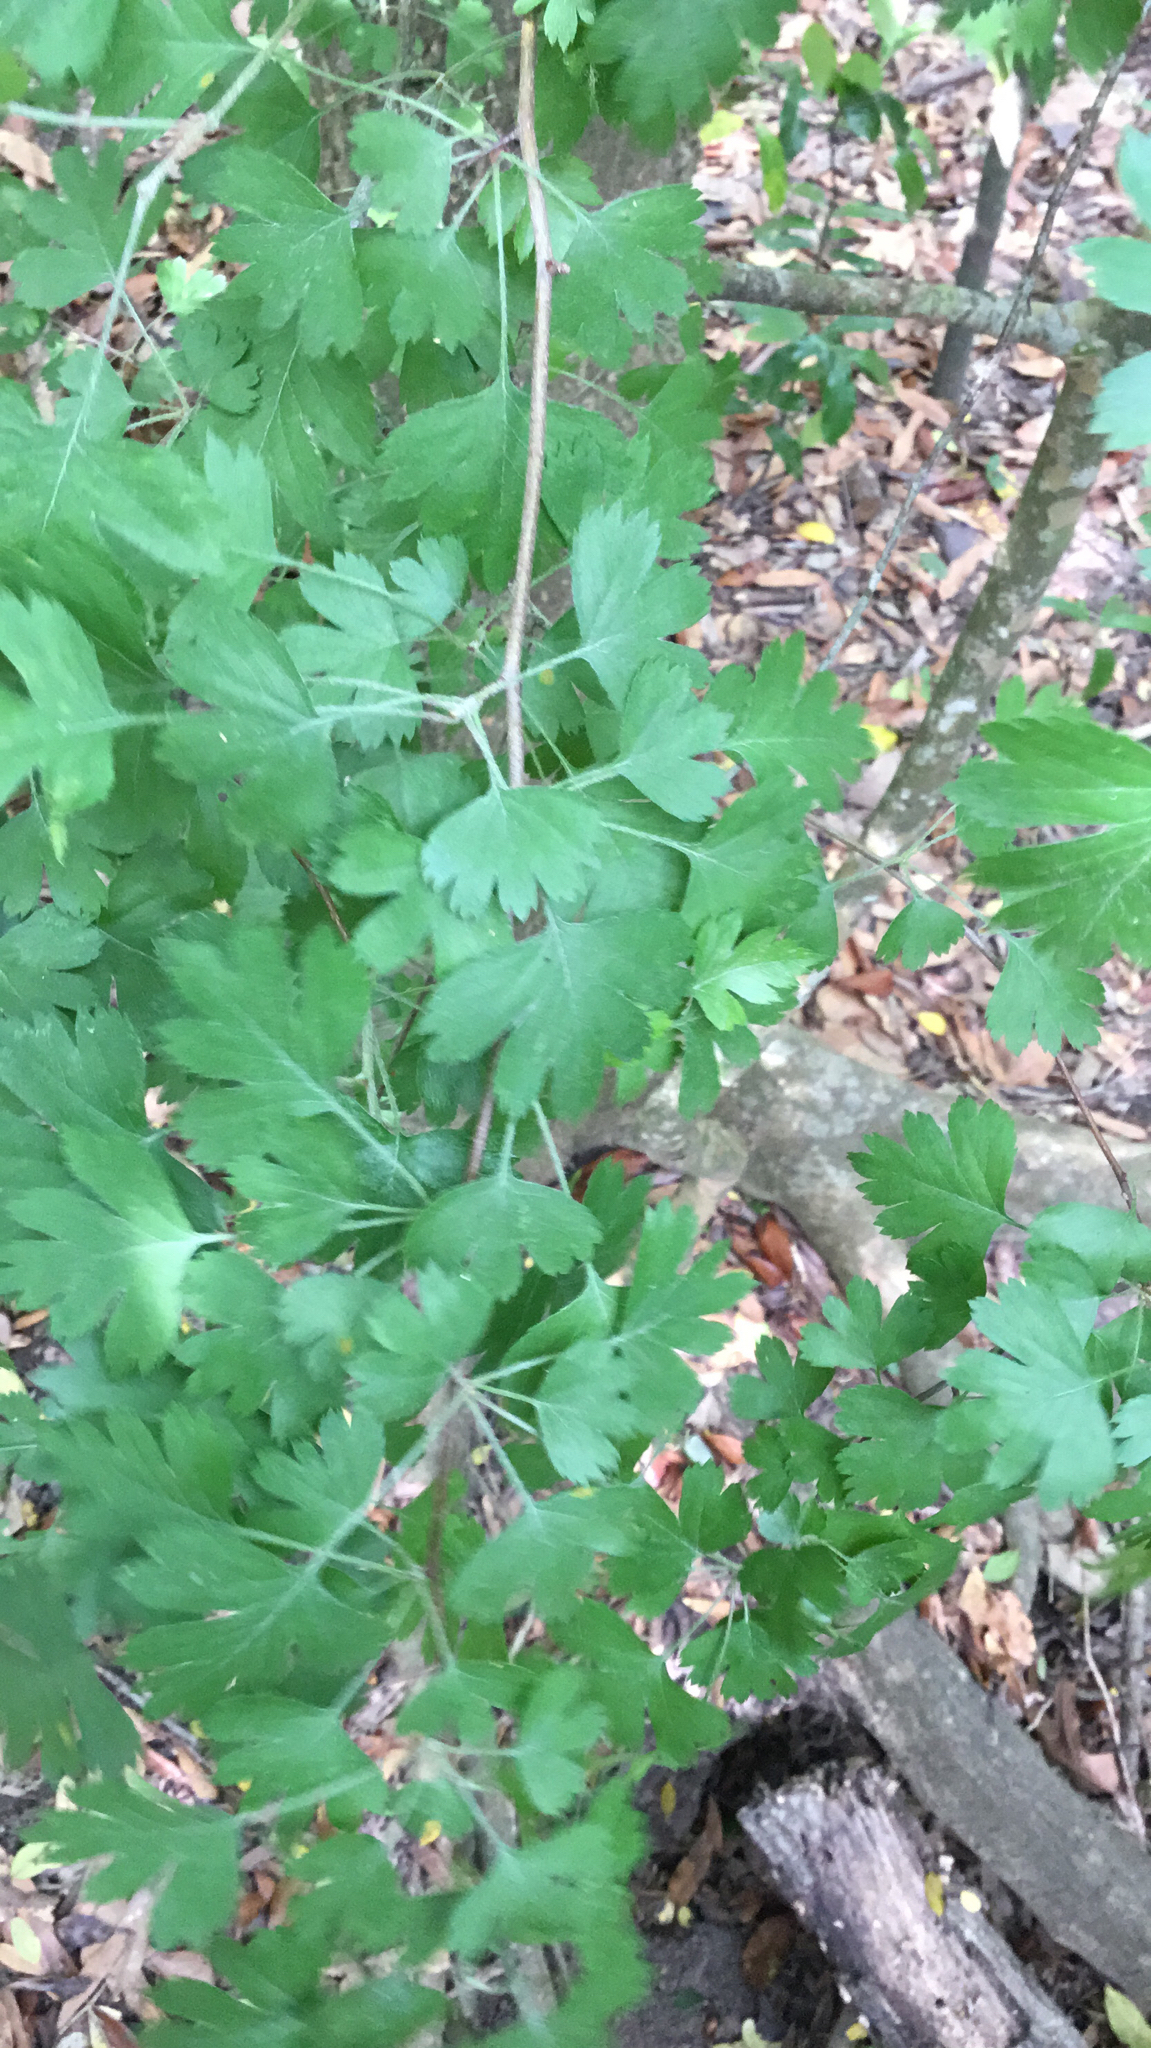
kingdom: Plantae
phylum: Tracheophyta
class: Magnoliopsida
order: Rosales
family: Rosaceae
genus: Crataegus
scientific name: Crataegus marshallii
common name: Parsley-hawthorn
